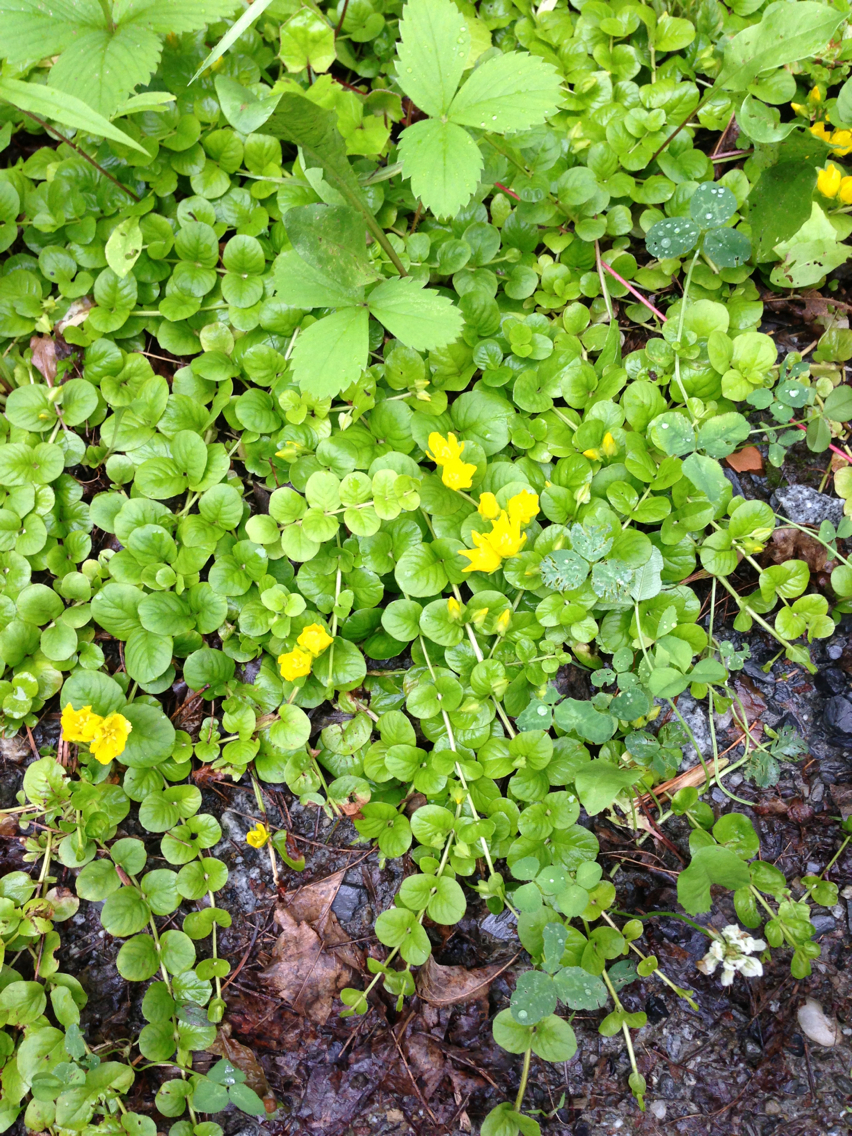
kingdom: Plantae
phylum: Tracheophyta
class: Magnoliopsida
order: Ericales
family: Primulaceae
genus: Lysimachia
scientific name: Lysimachia nummularia
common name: Moneywort
